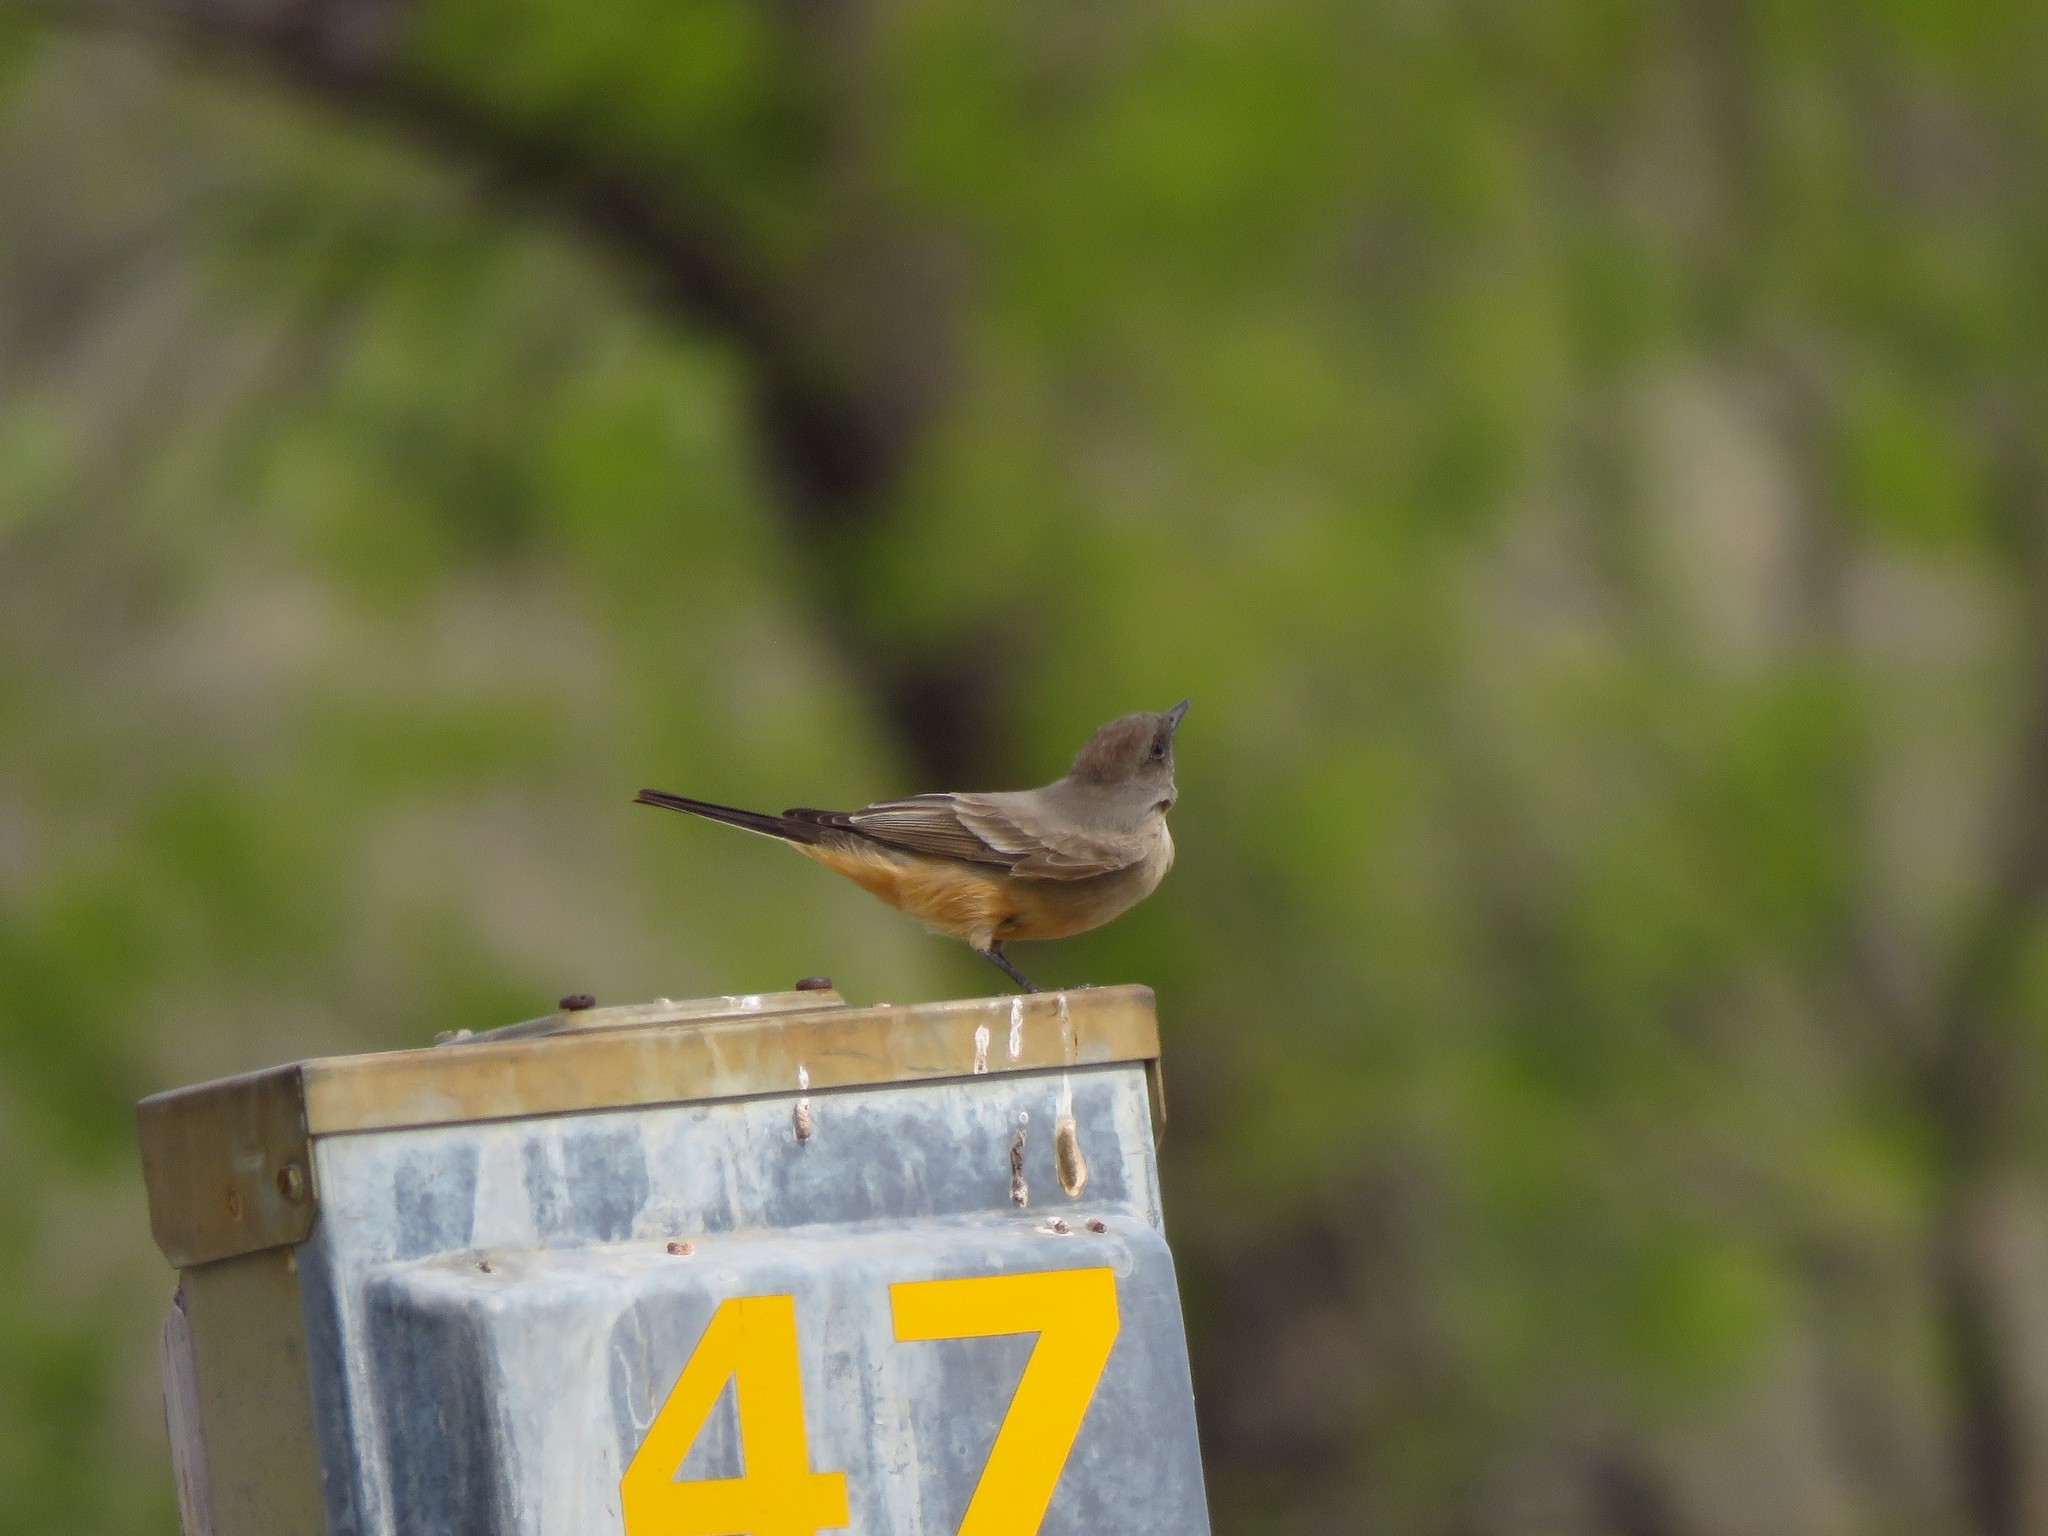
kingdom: Animalia
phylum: Chordata
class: Aves
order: Passeriformes
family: Tyrannidae
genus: Sayornis
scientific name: Sayornis saya
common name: Say's phoebe
